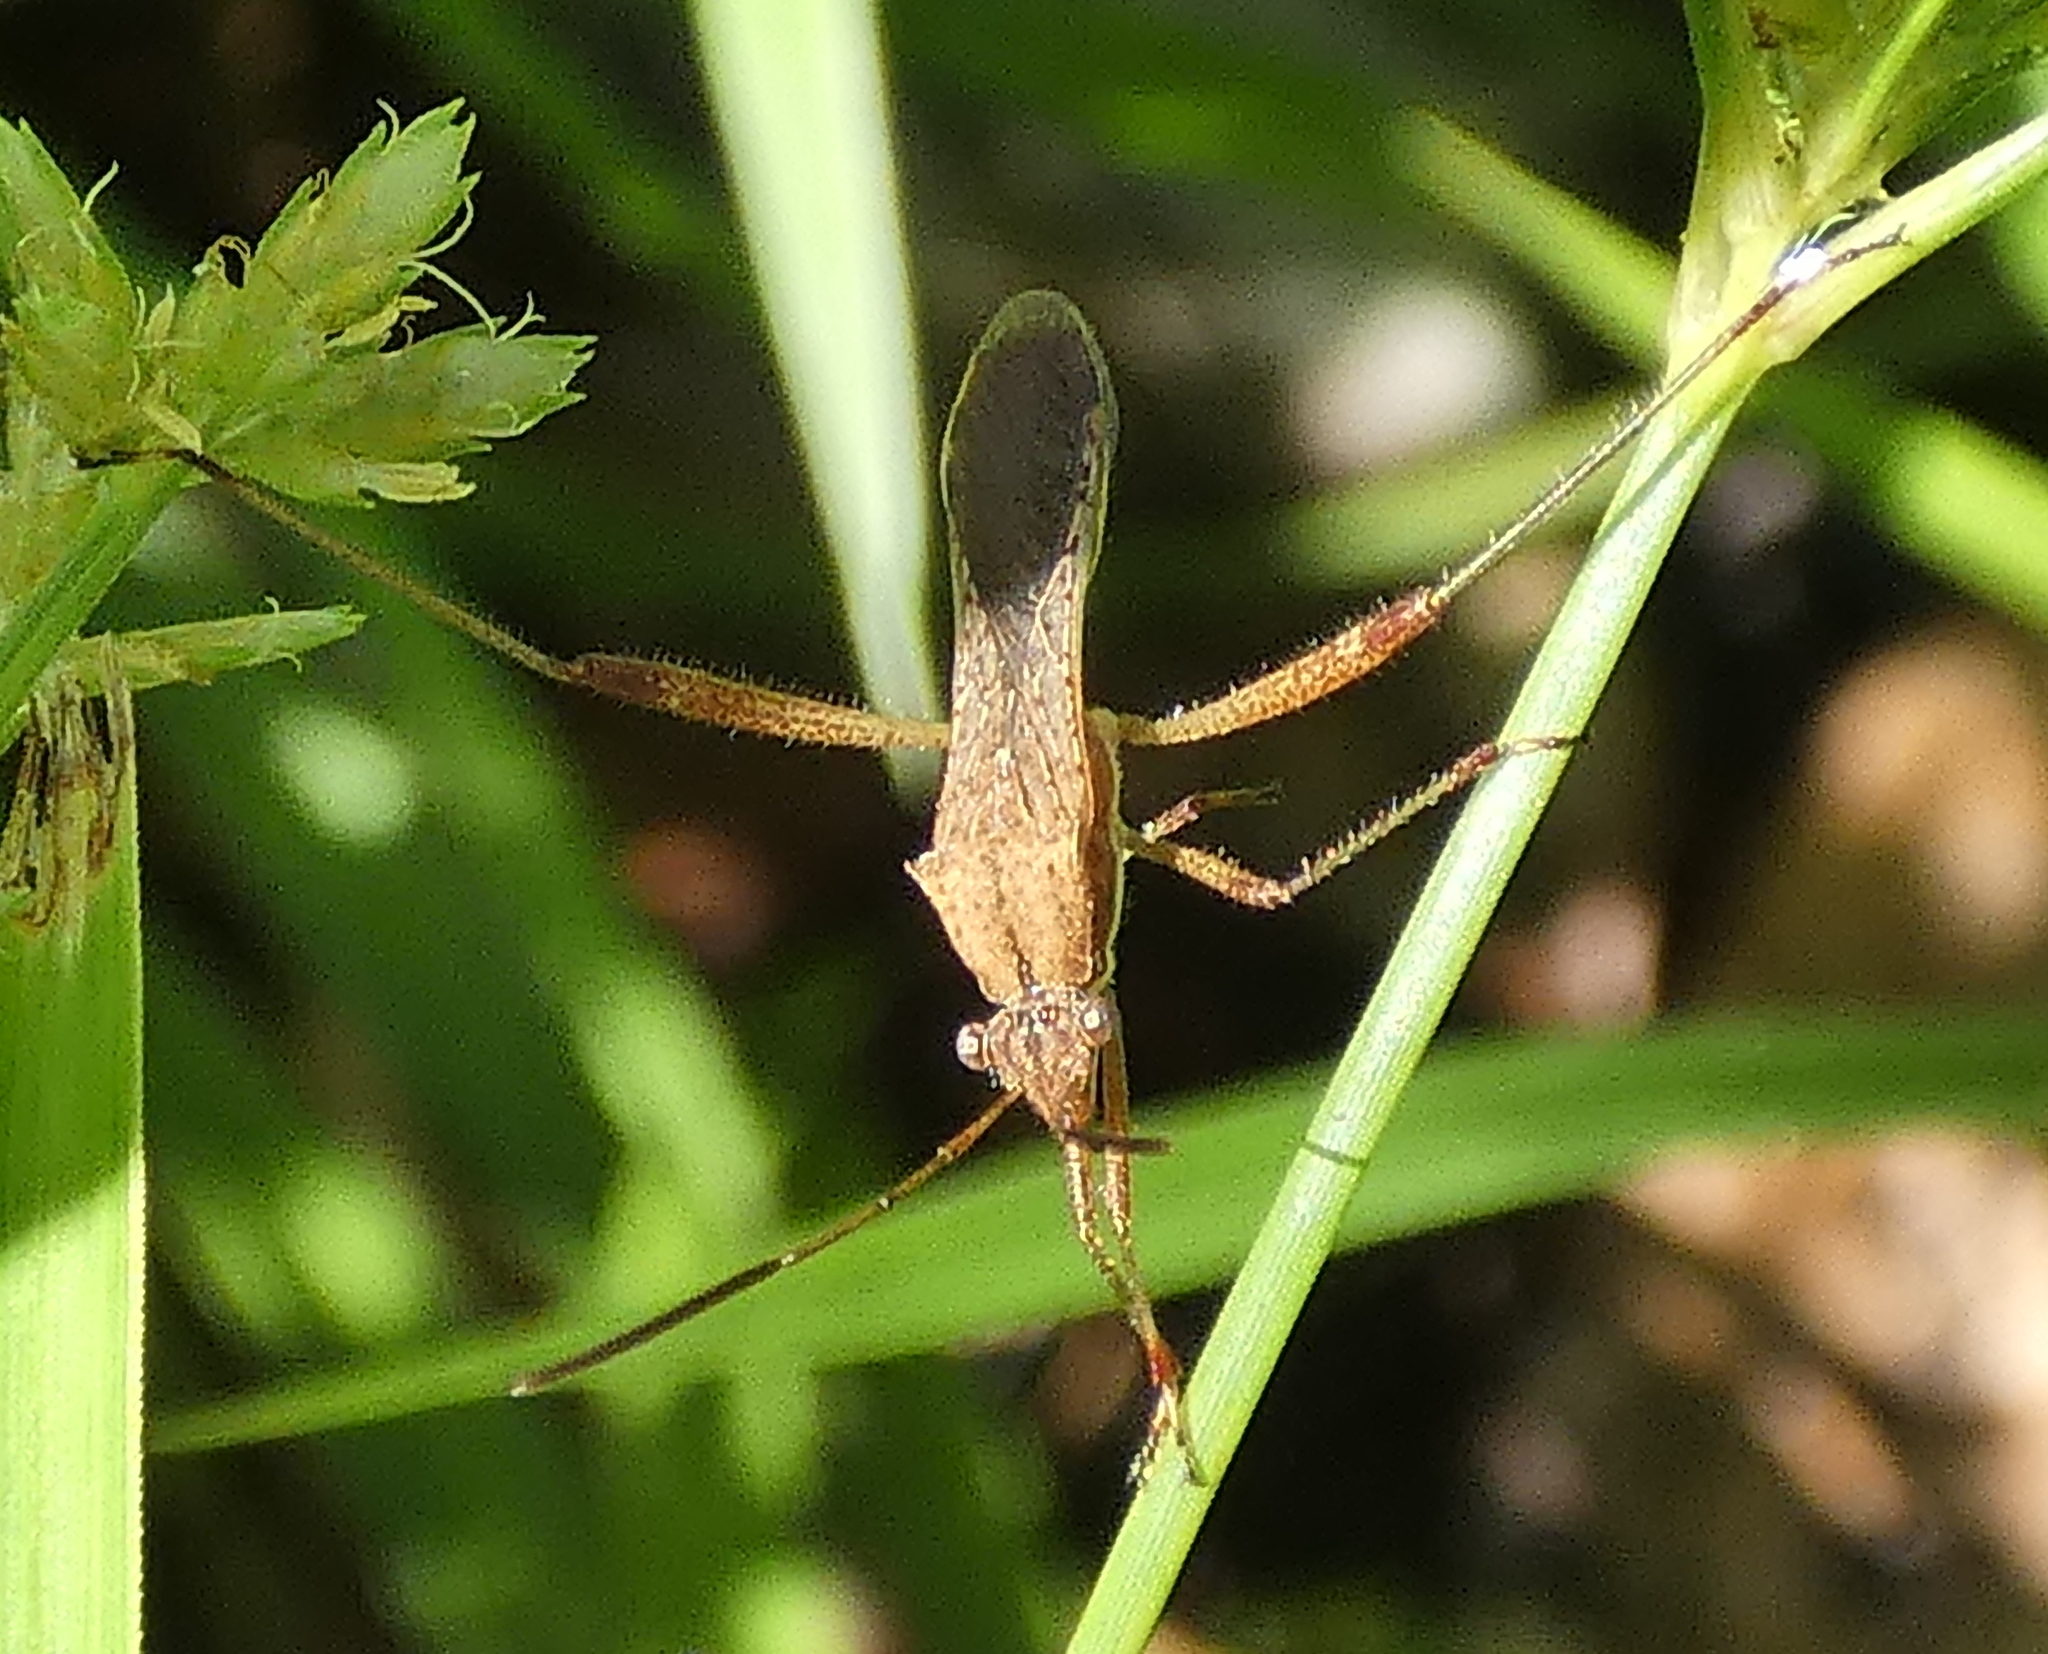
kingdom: Animalia
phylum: Arthropoda
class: Insecta
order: Hemiptera
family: Alydidae
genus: Neomegalotomus
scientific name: Neomegalotomus parvus
